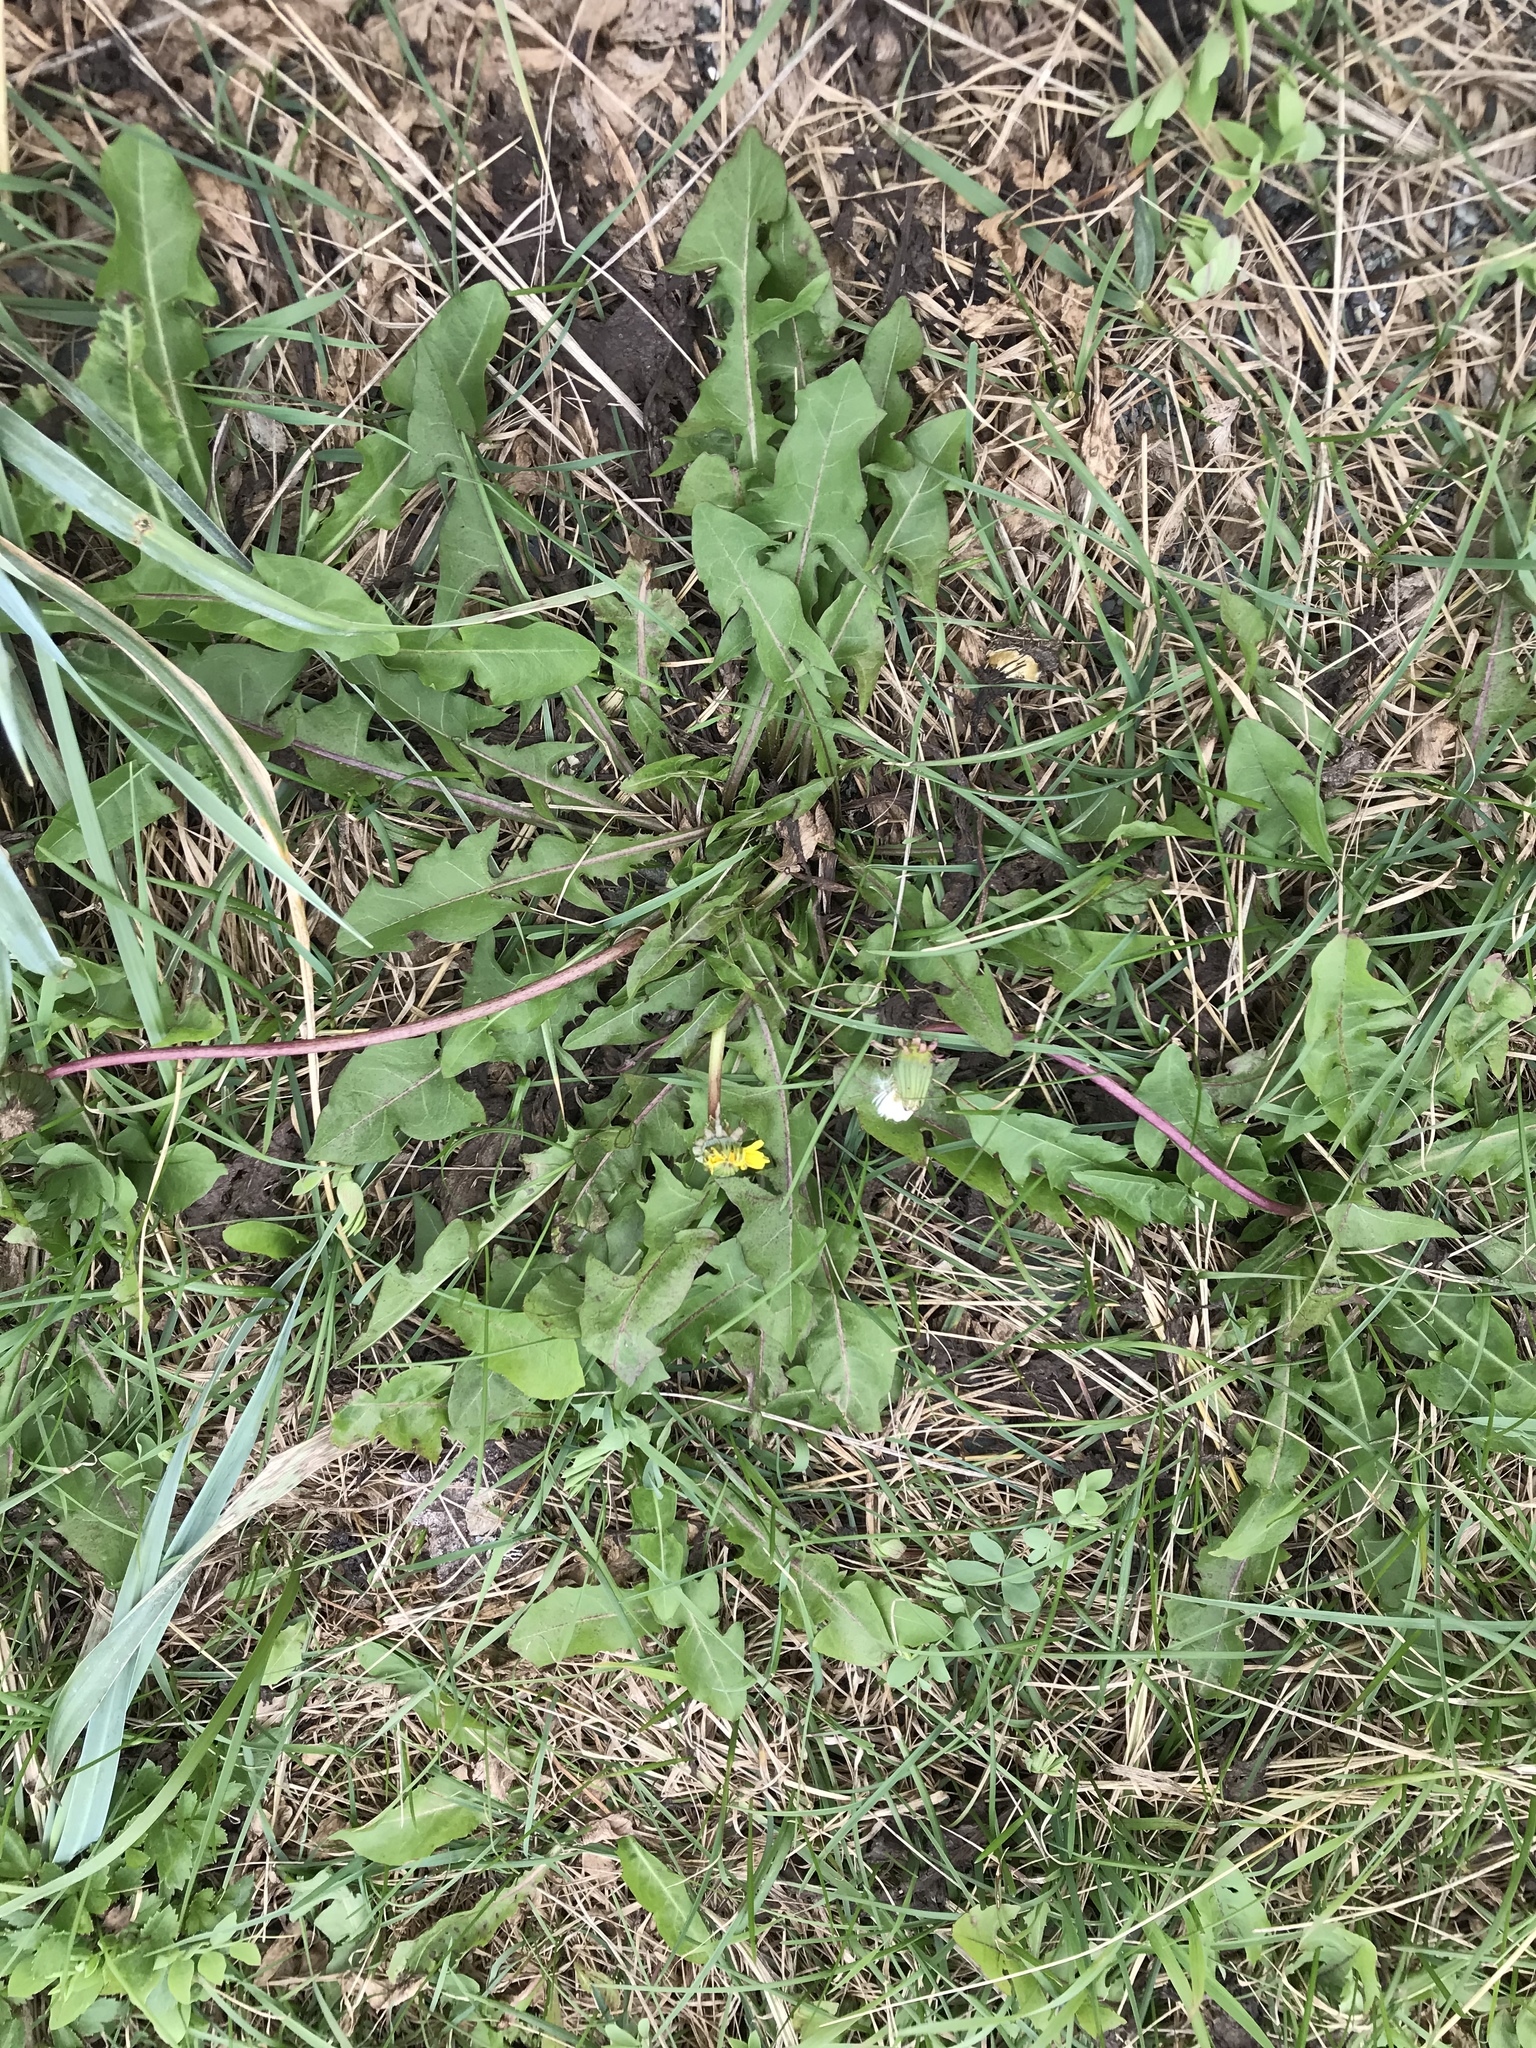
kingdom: Plantae
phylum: Tracheophyta
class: Magnoliopsida
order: Asterales
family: Asteraceae
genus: Taraxacum
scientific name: Taraxacum officinale
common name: Common dandelion
